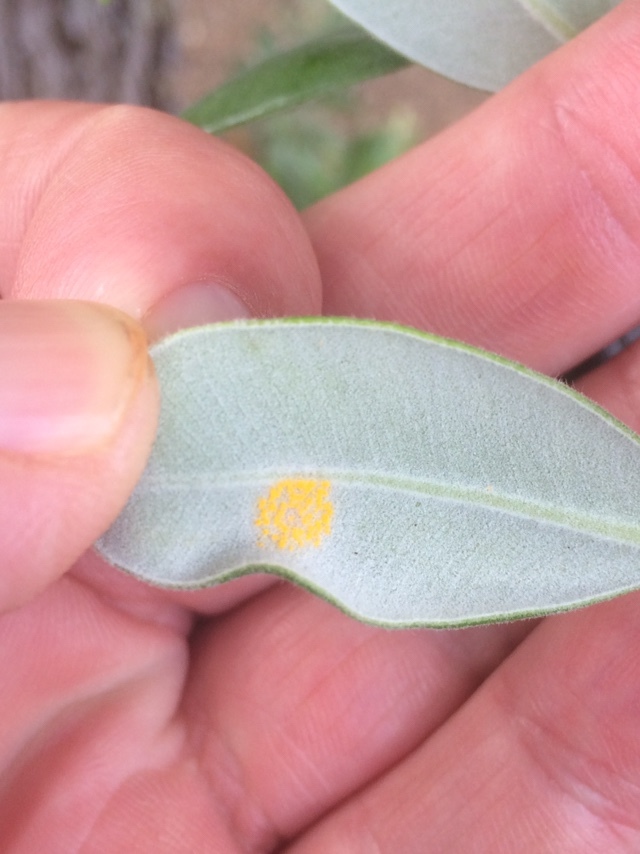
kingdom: Fungi
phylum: Basidiomycota
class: Pucciniomycetes
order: Pucciniales
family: Sphaerophragmiaceae
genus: Austropuccinia
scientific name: Austropuccinia psidii
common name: Myrtle rust
